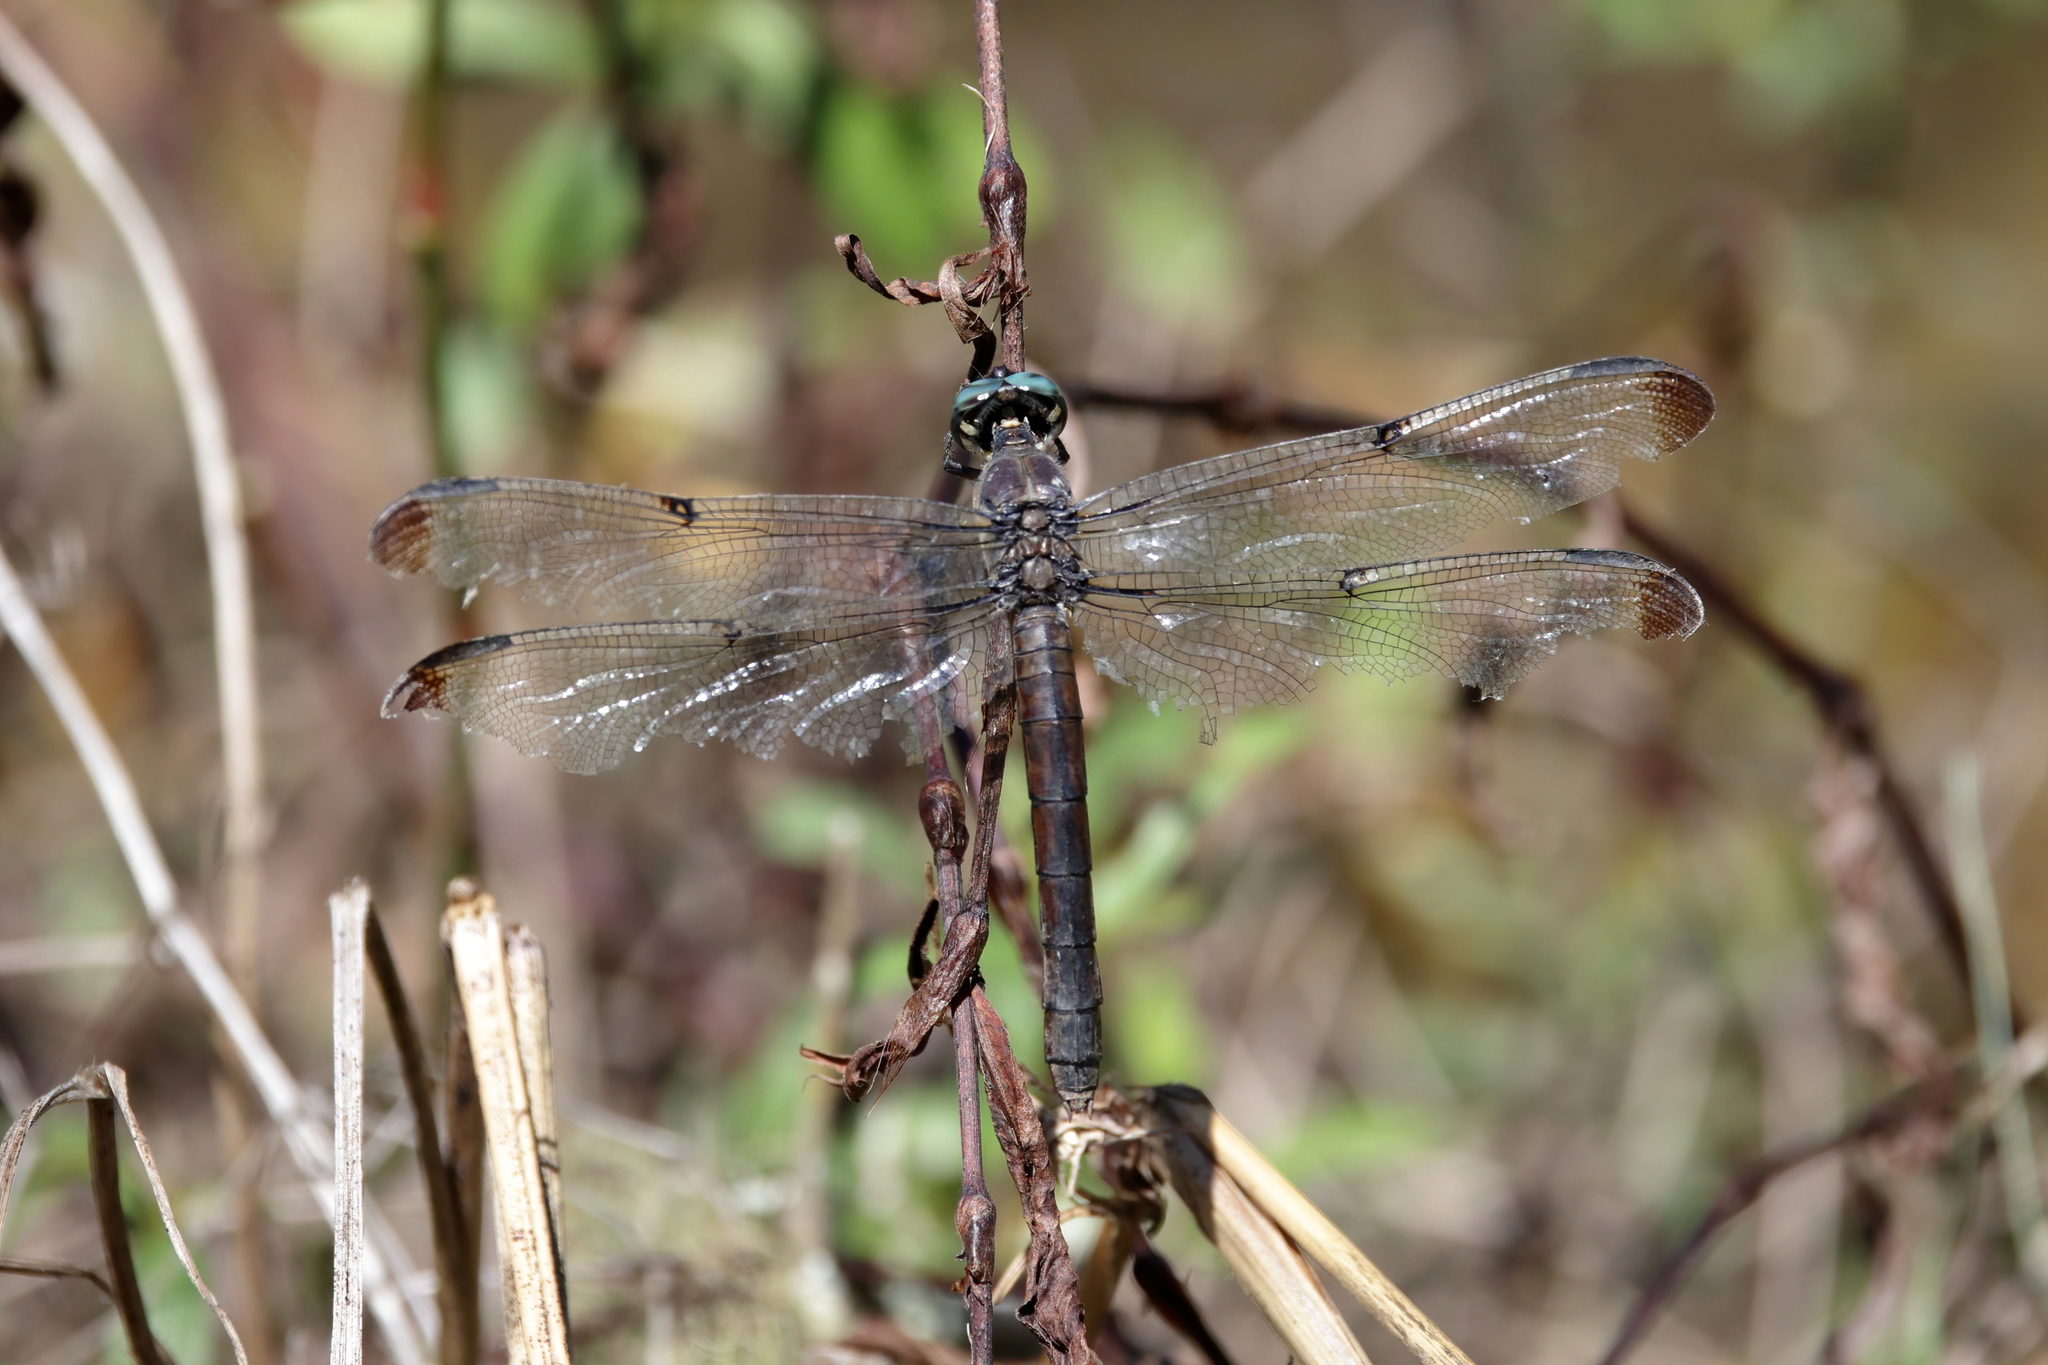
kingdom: Animalia
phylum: Arthropoda
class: Insecta
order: Odonata
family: Libellulidae
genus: Libellula
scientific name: Libellula vibrans
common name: Great blue skimmer
